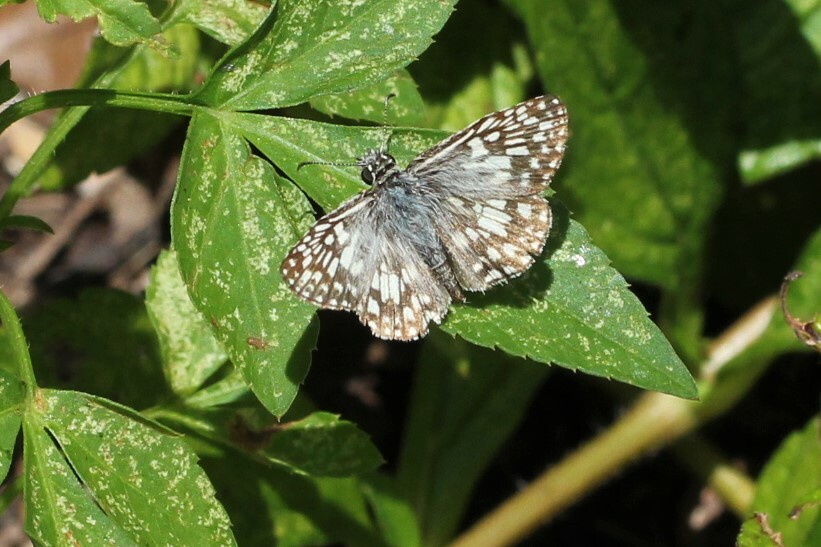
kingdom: Animalia
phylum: Arthropoda
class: Insecta
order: Lepidoptera
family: Hesperiidae
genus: Pyrgus
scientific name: Pyrgus oileus
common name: Tropical checkered-skipper
